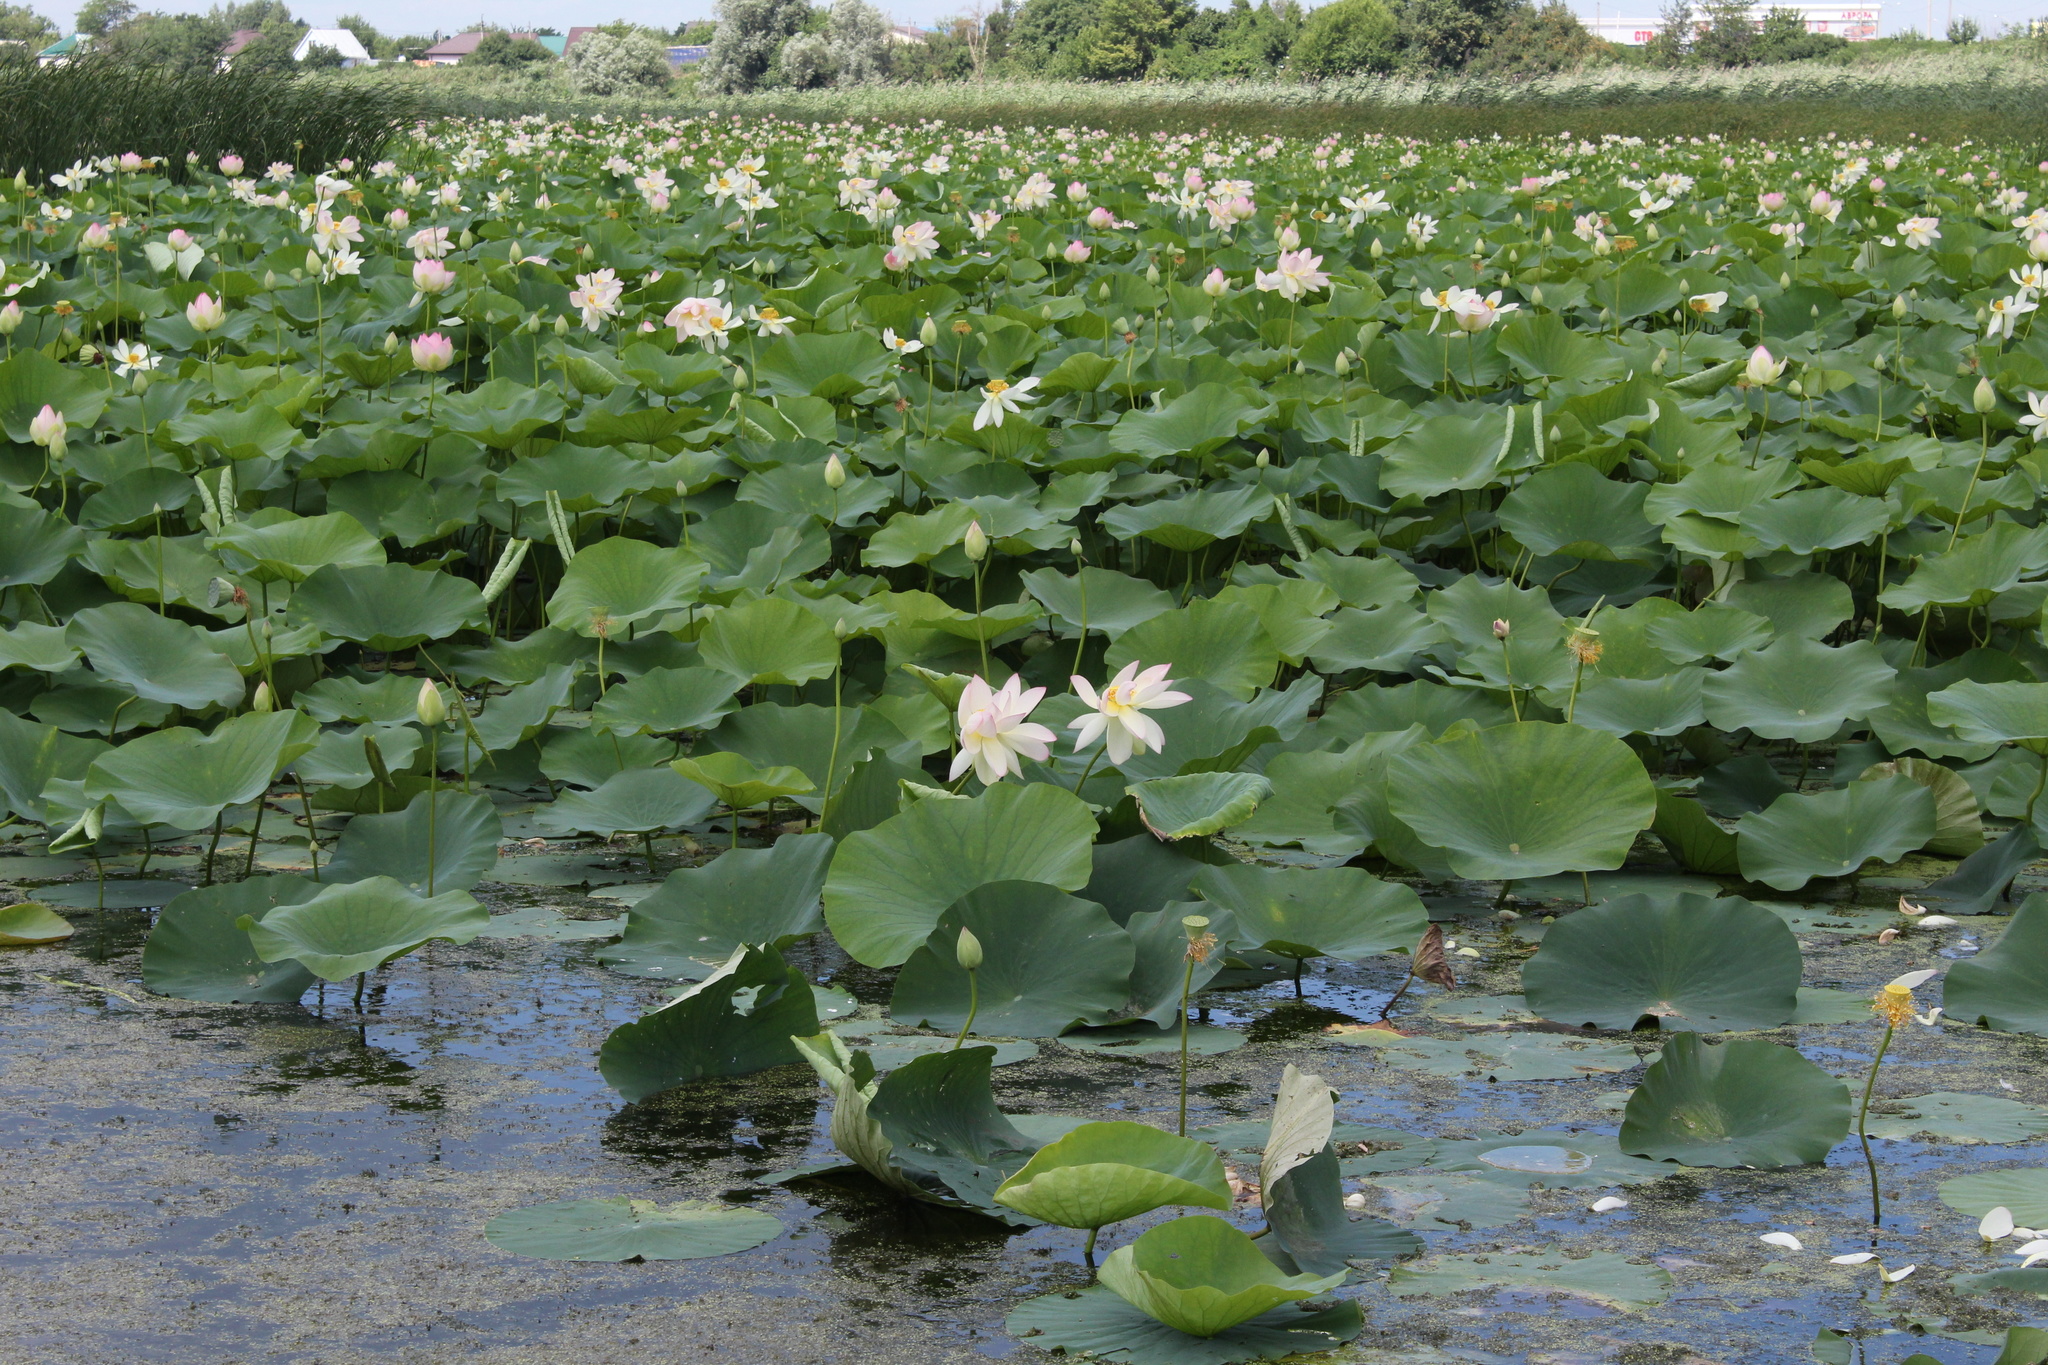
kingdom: Plantae
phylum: Tracheophyta
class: Magnoliopsida
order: Proteales
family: Nelumbonaceae
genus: Nelumbo
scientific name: Nelumbo nucifera
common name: Sacred lotus
